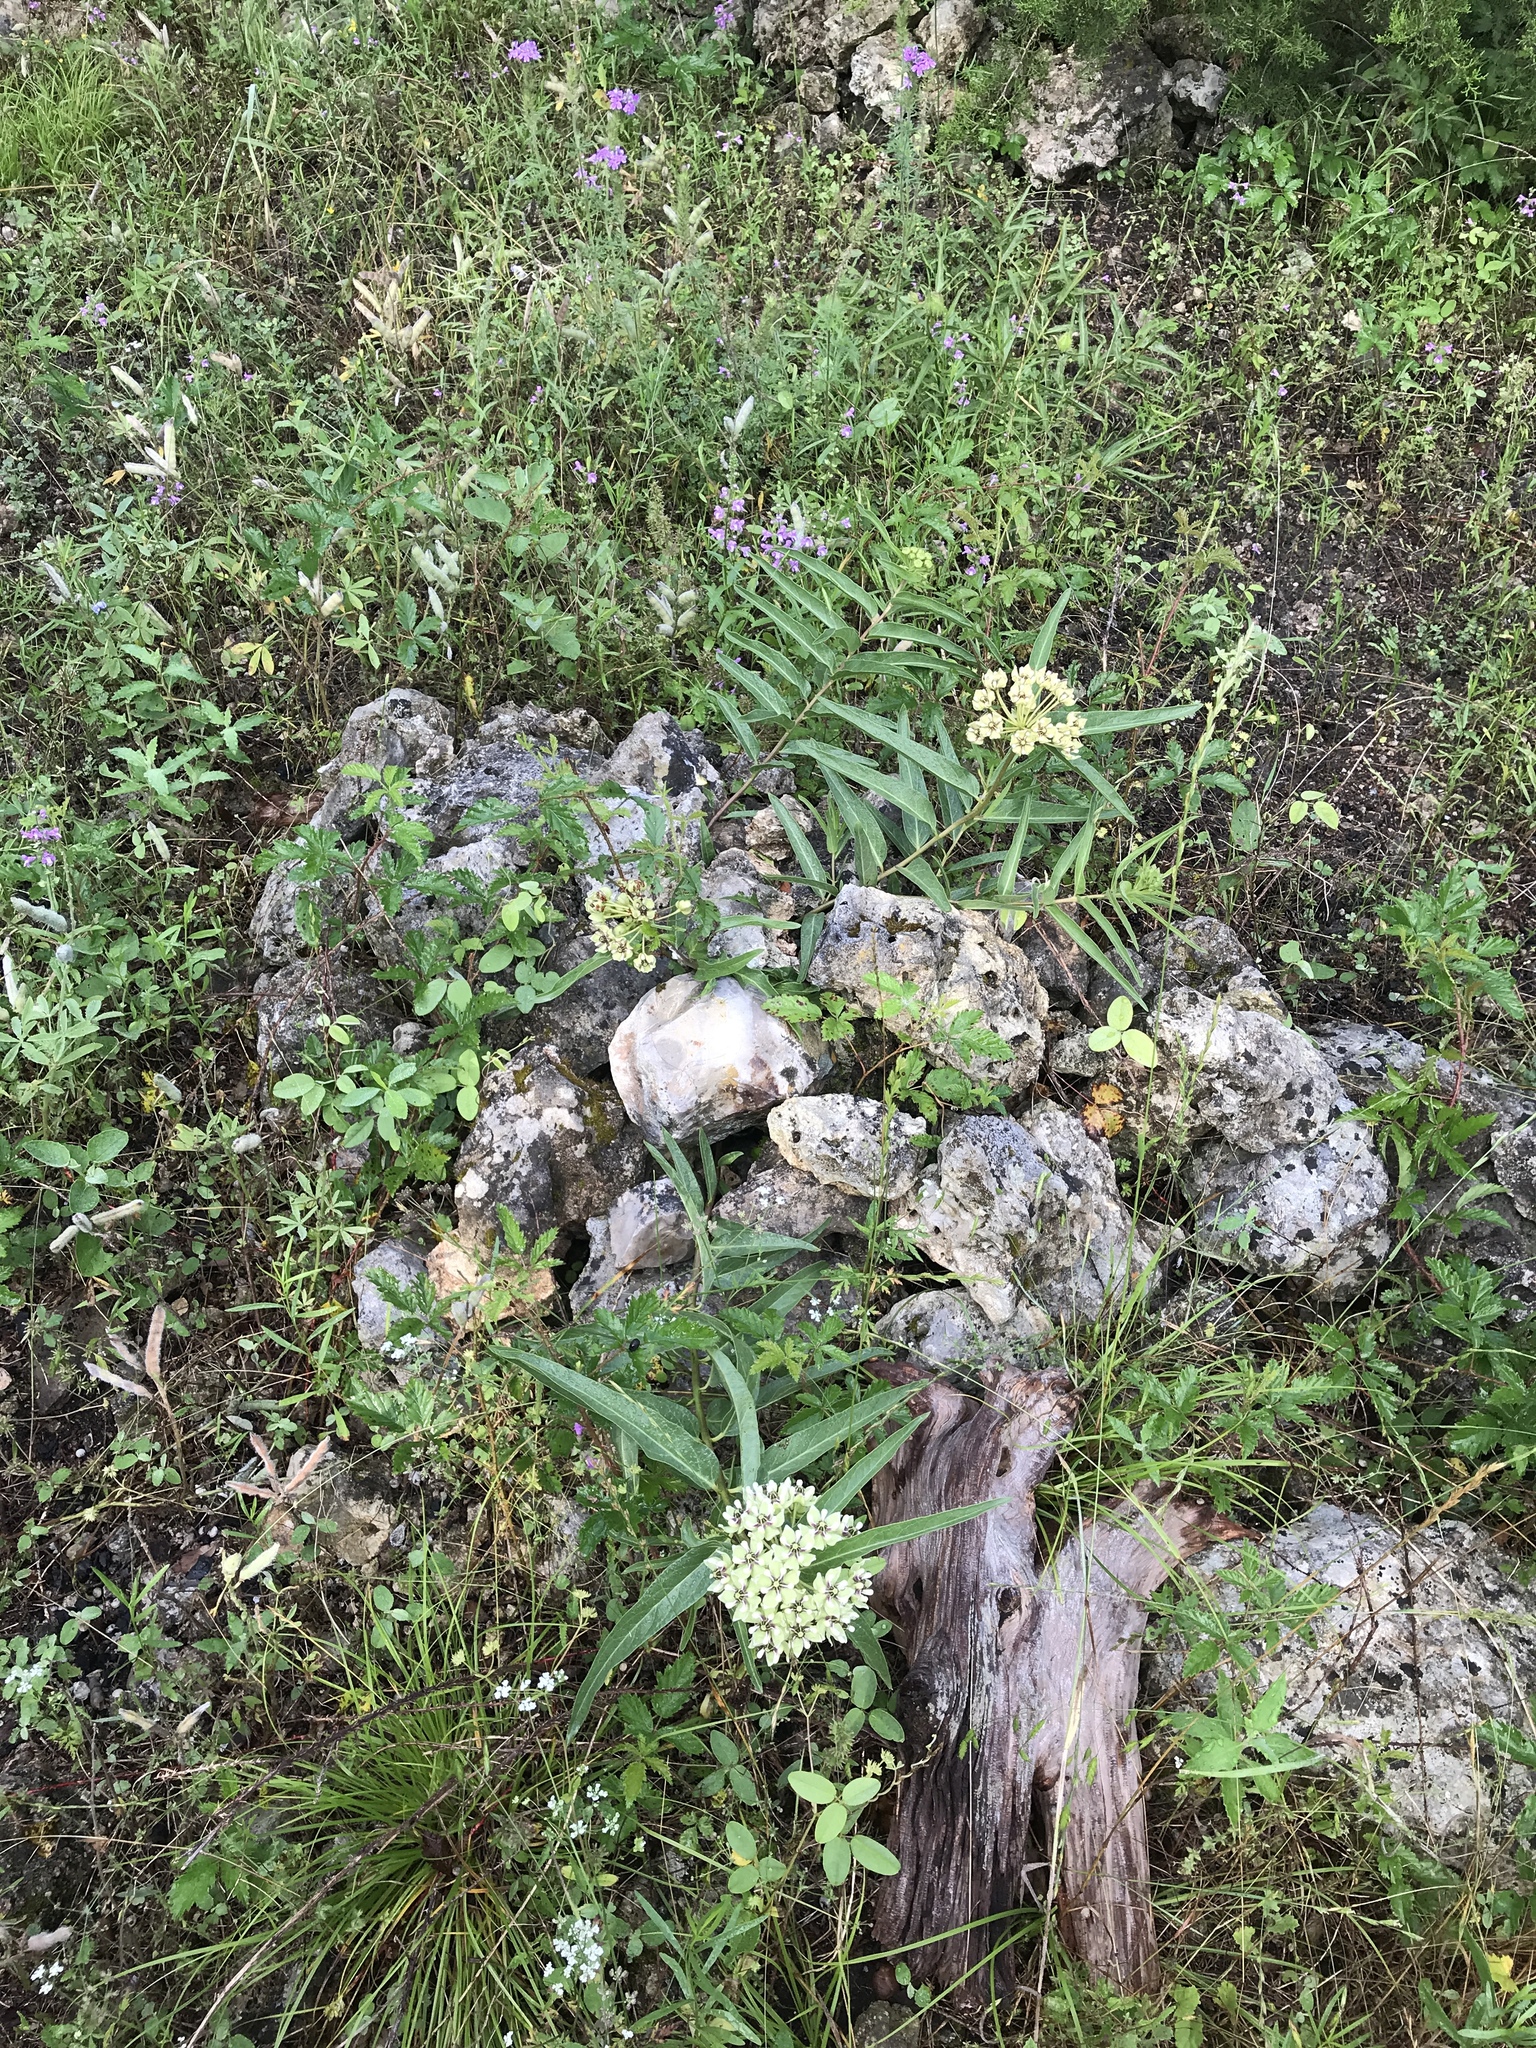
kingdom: Plantae
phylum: Tracheophyta
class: Magnoliopsida
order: Gentianales
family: Apocynaceae
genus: Asclepias
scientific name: Asclepias asperula
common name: Antelope horns
